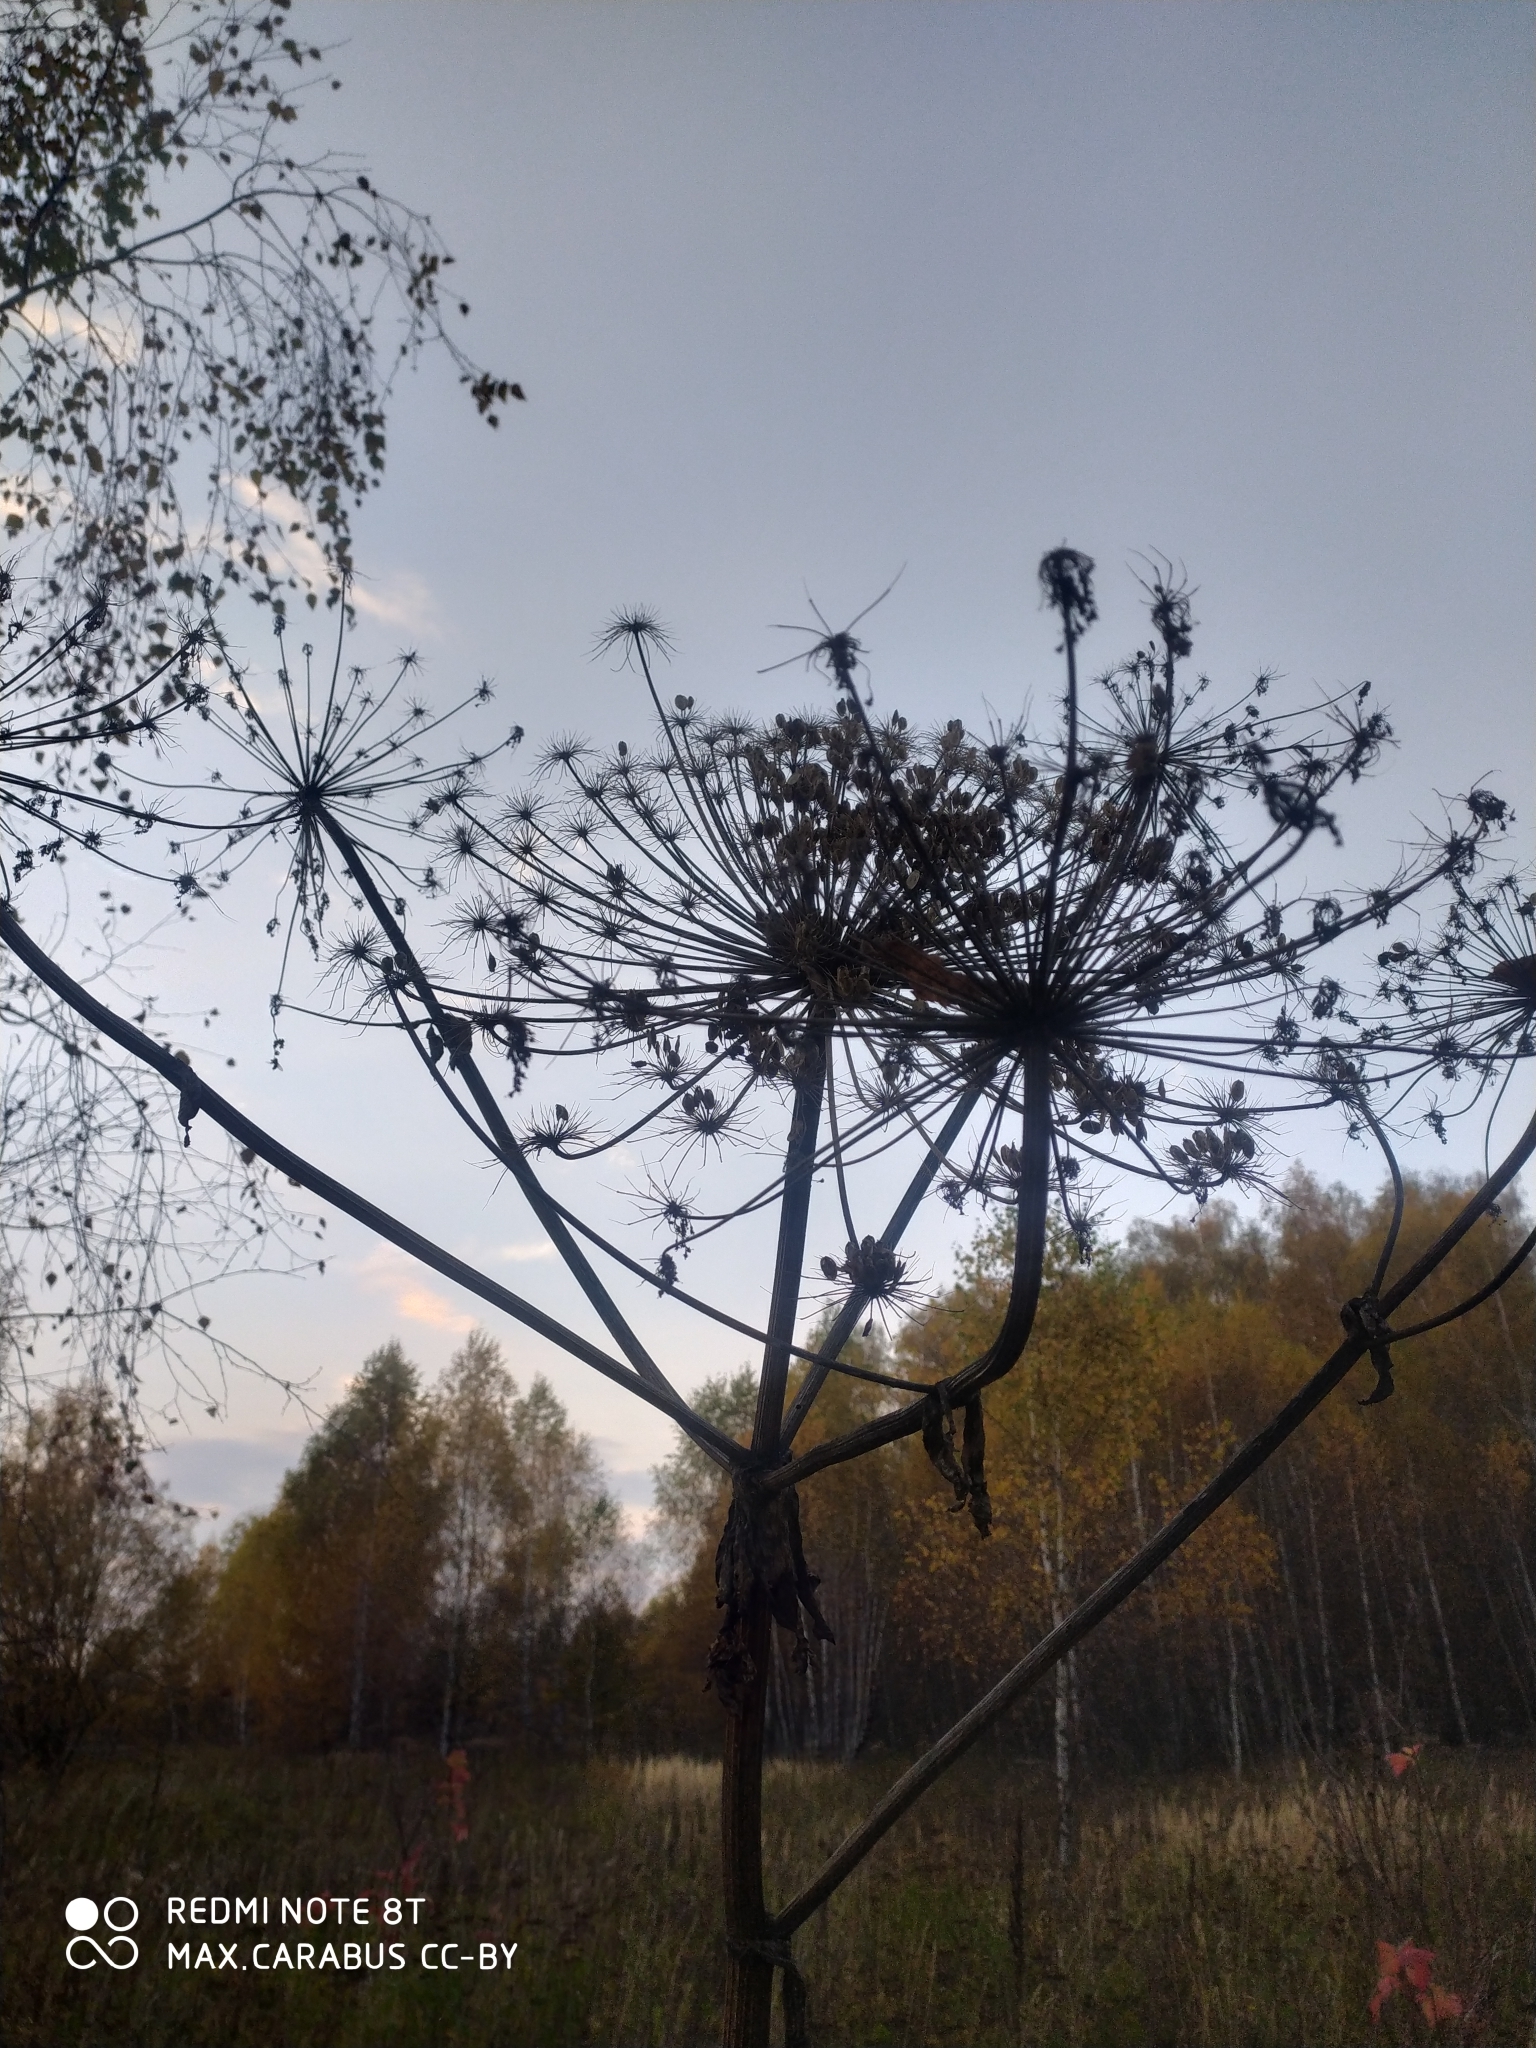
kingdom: Plantae
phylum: Tracheophyta
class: Magnoliopsida
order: Apiales
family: Apiaceae
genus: Heracleum
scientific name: Heracleum sosnowskyi
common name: Sosnowsky's hogweed
